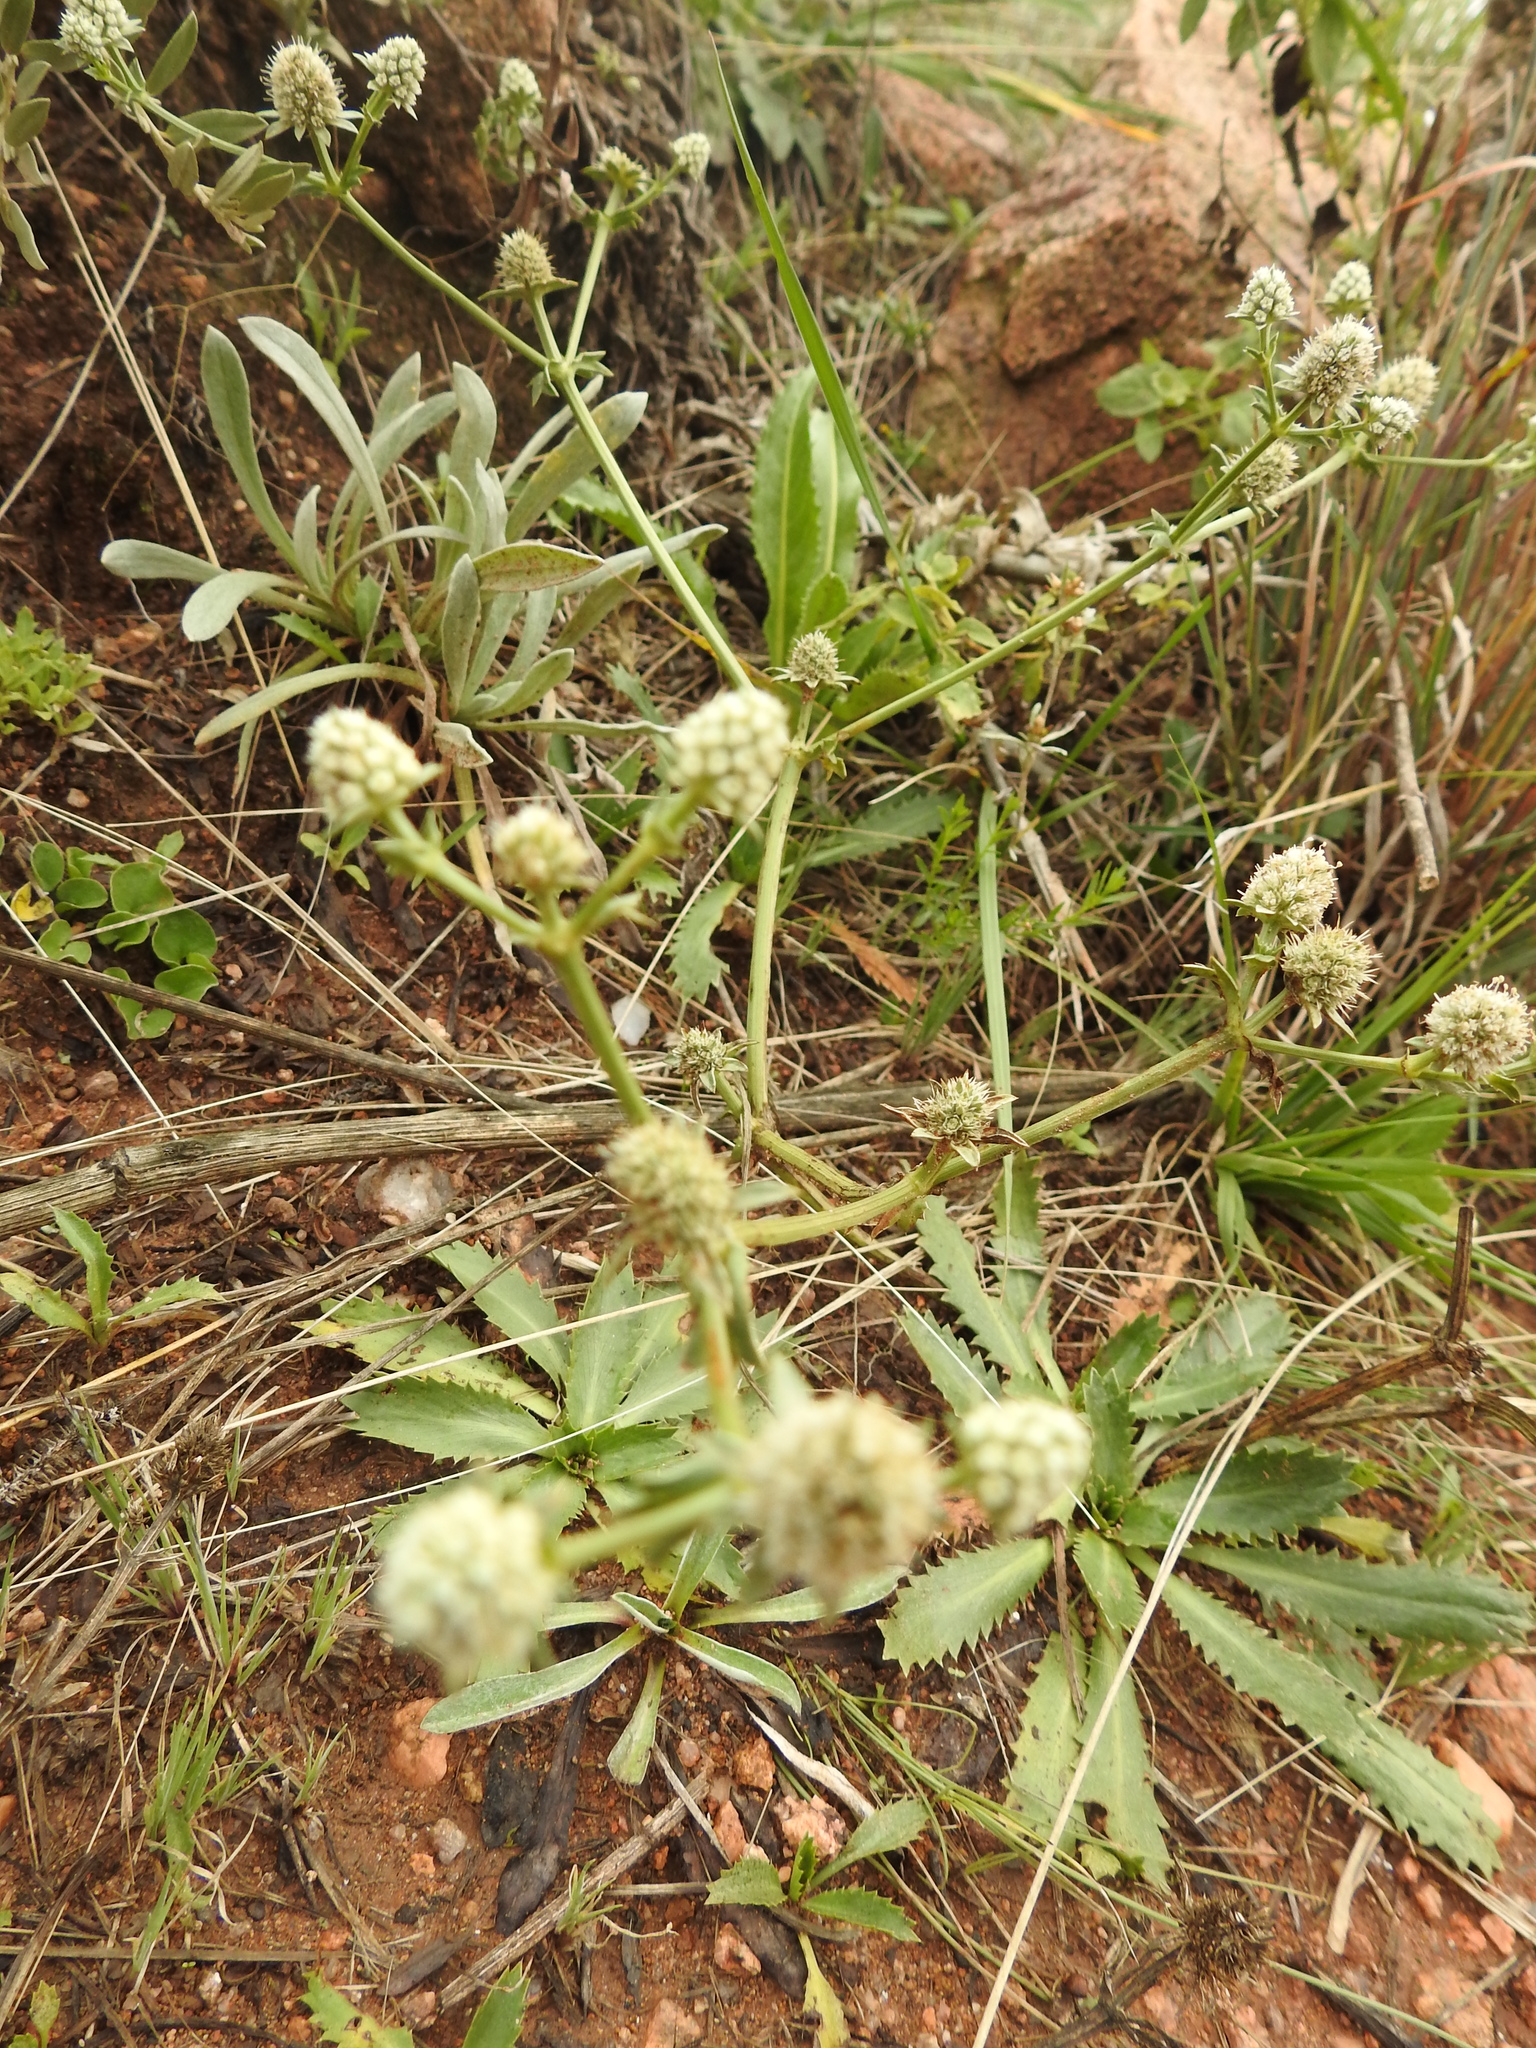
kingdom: Plantae
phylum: Tracheophyta
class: Magnoliopsida
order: Apiales
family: Apiaceae
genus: Eryngium
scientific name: Eryngium nudicaule
